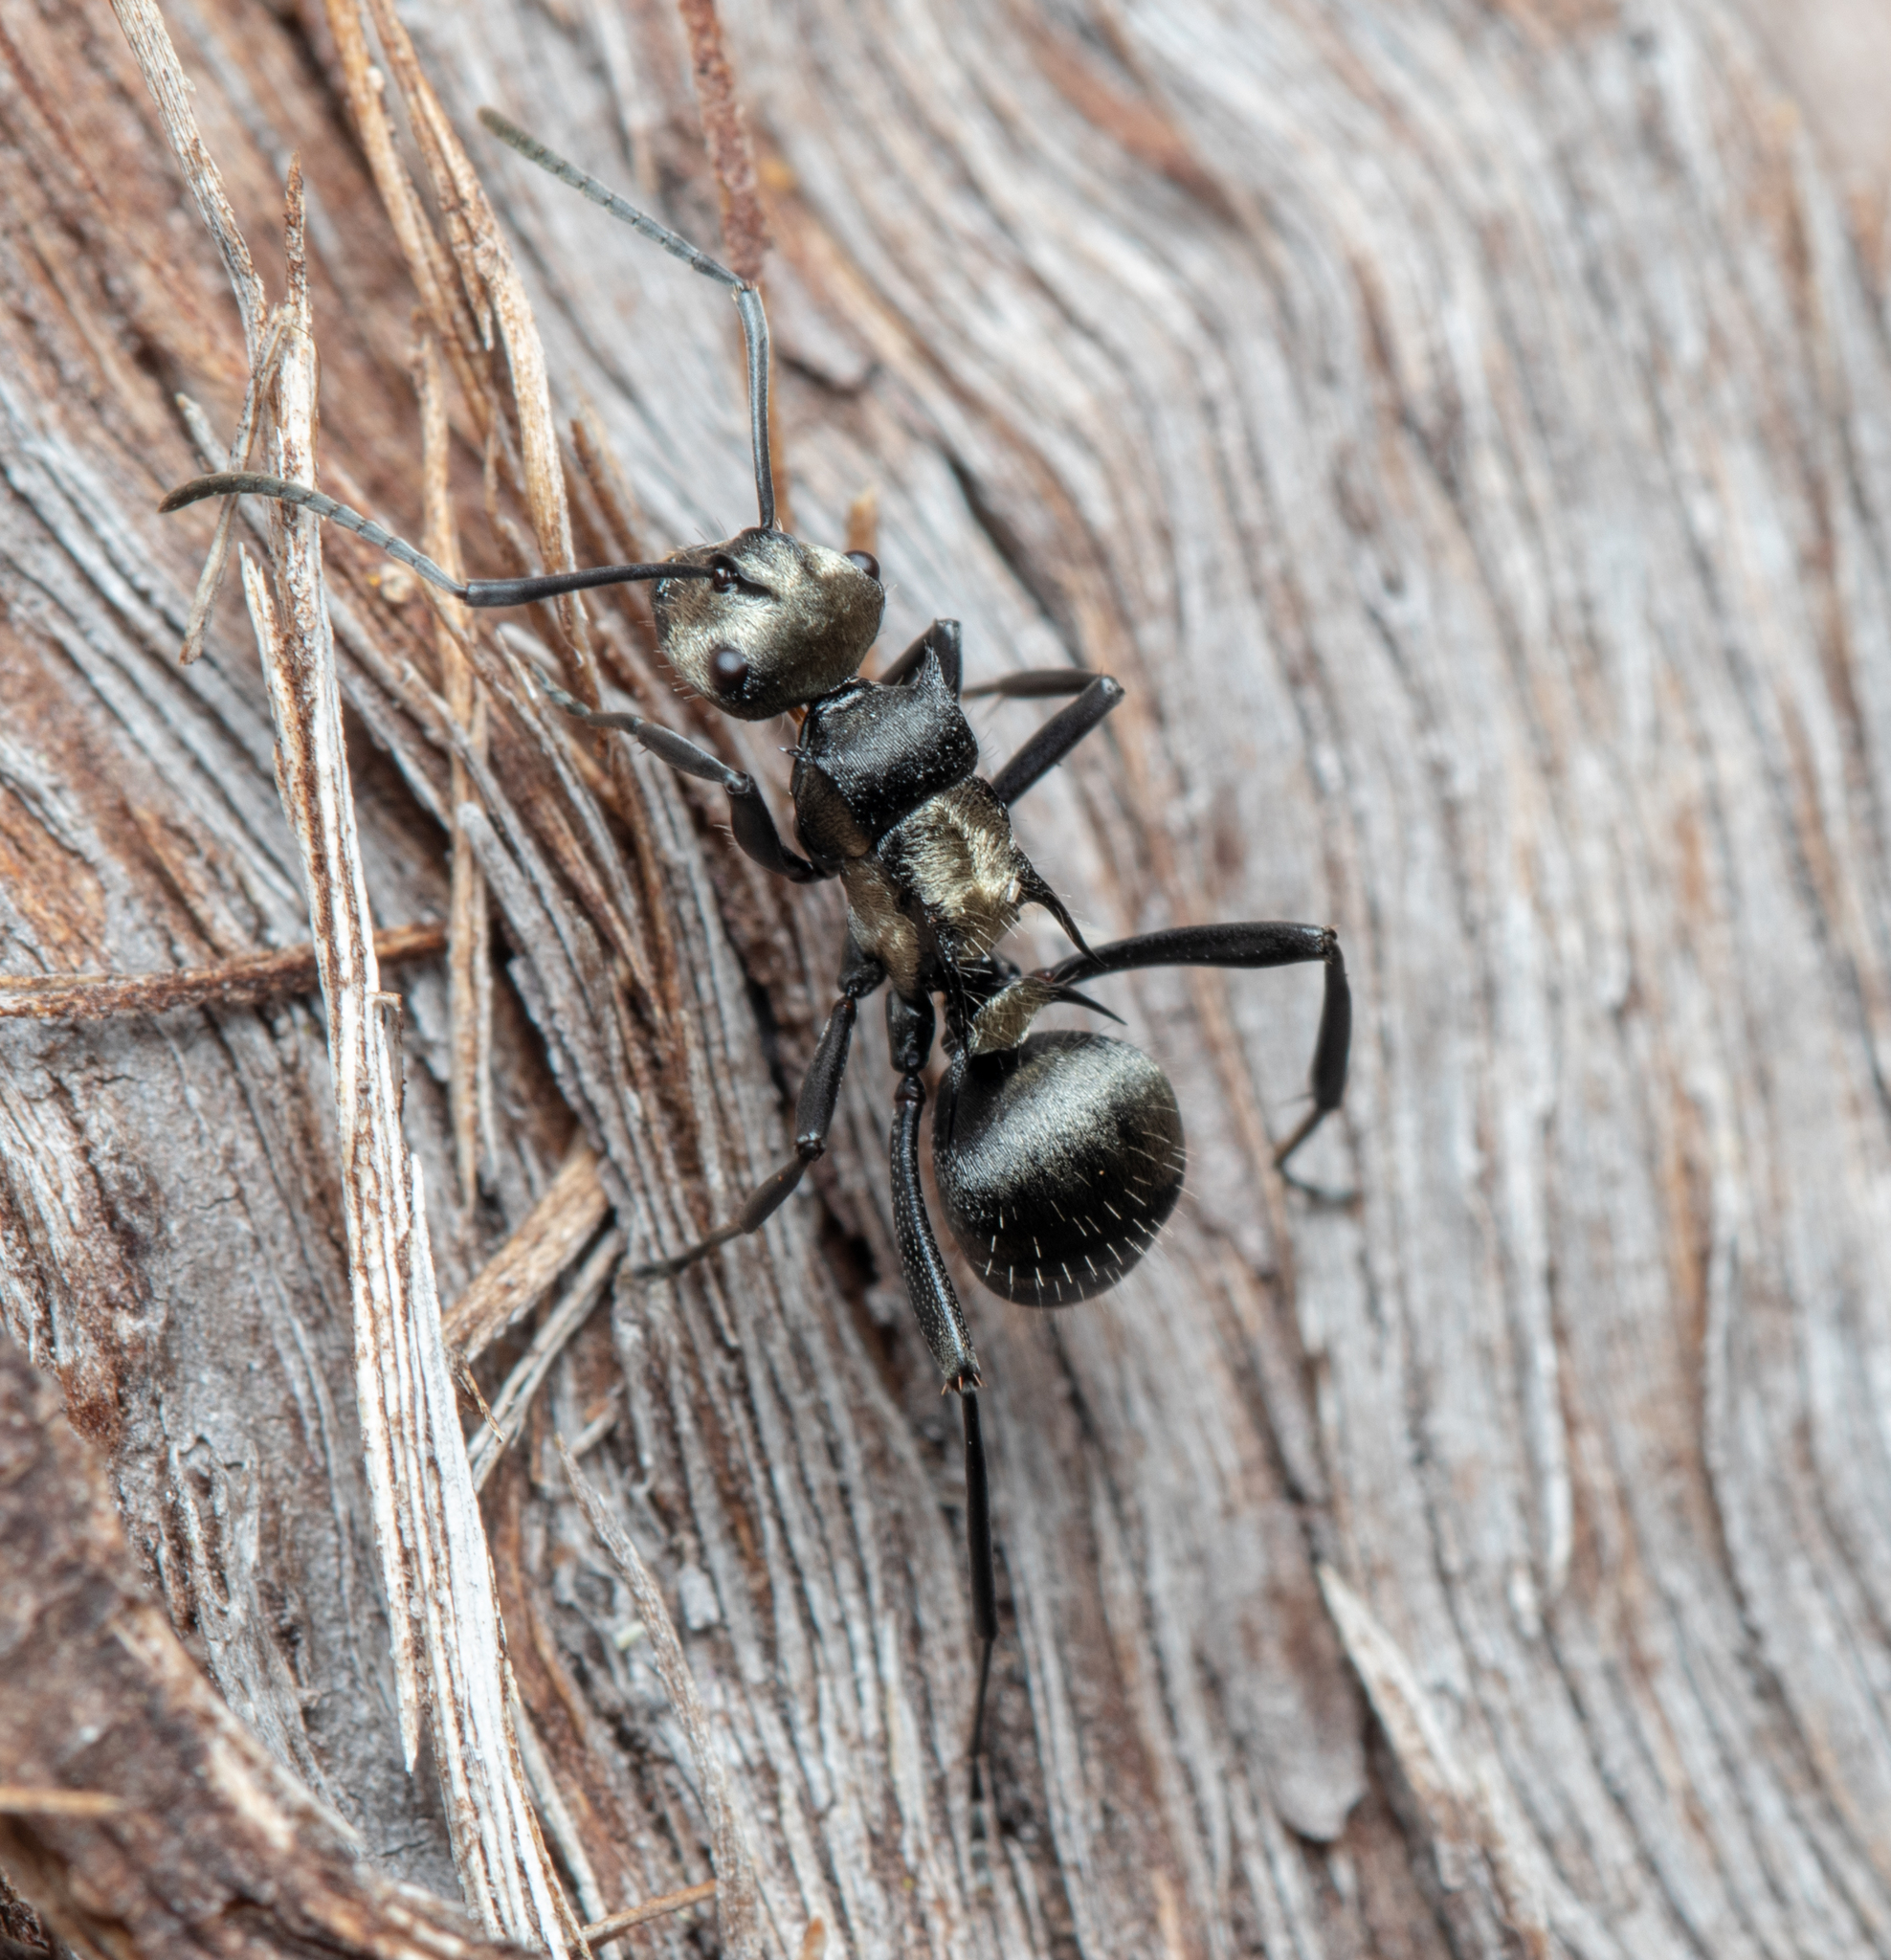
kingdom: Animalia
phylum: Arthropoda
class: Insecta
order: Hymenoptera
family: Formicidae
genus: Polyrhachis
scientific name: Polyrhachis daemeli
